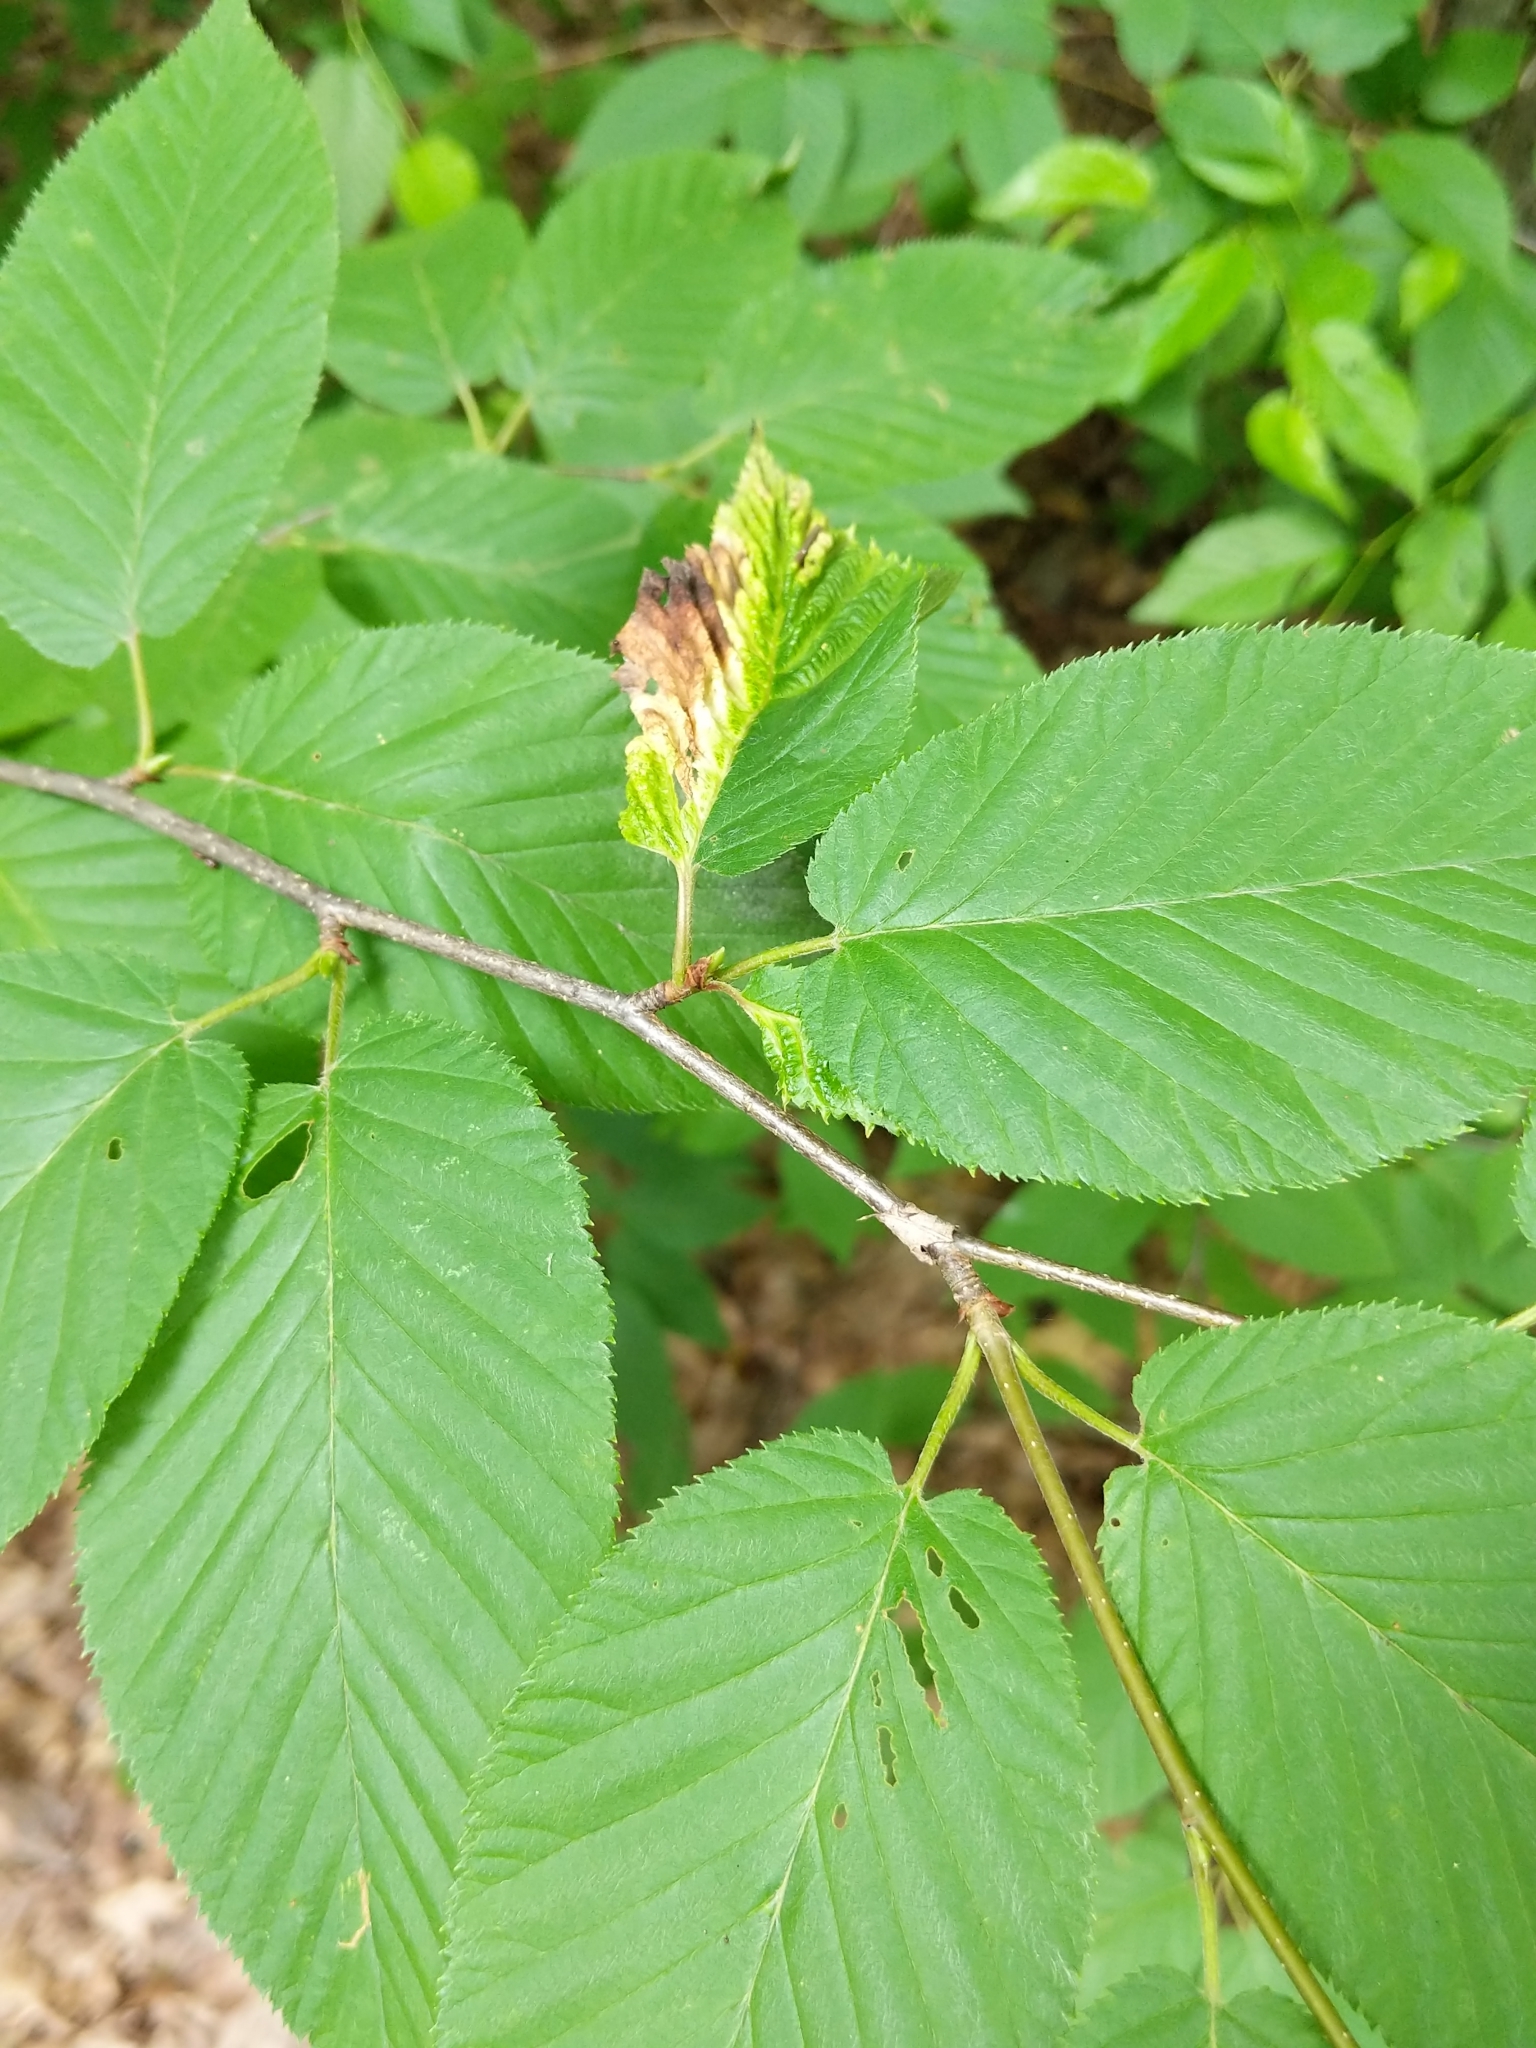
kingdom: Animalia
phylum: Arthropoda
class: Insecta
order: Hemiptera
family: Aphididae
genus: Hamamelistes
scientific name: Hamamelistes spinosus
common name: Witch hazel gall aphid
